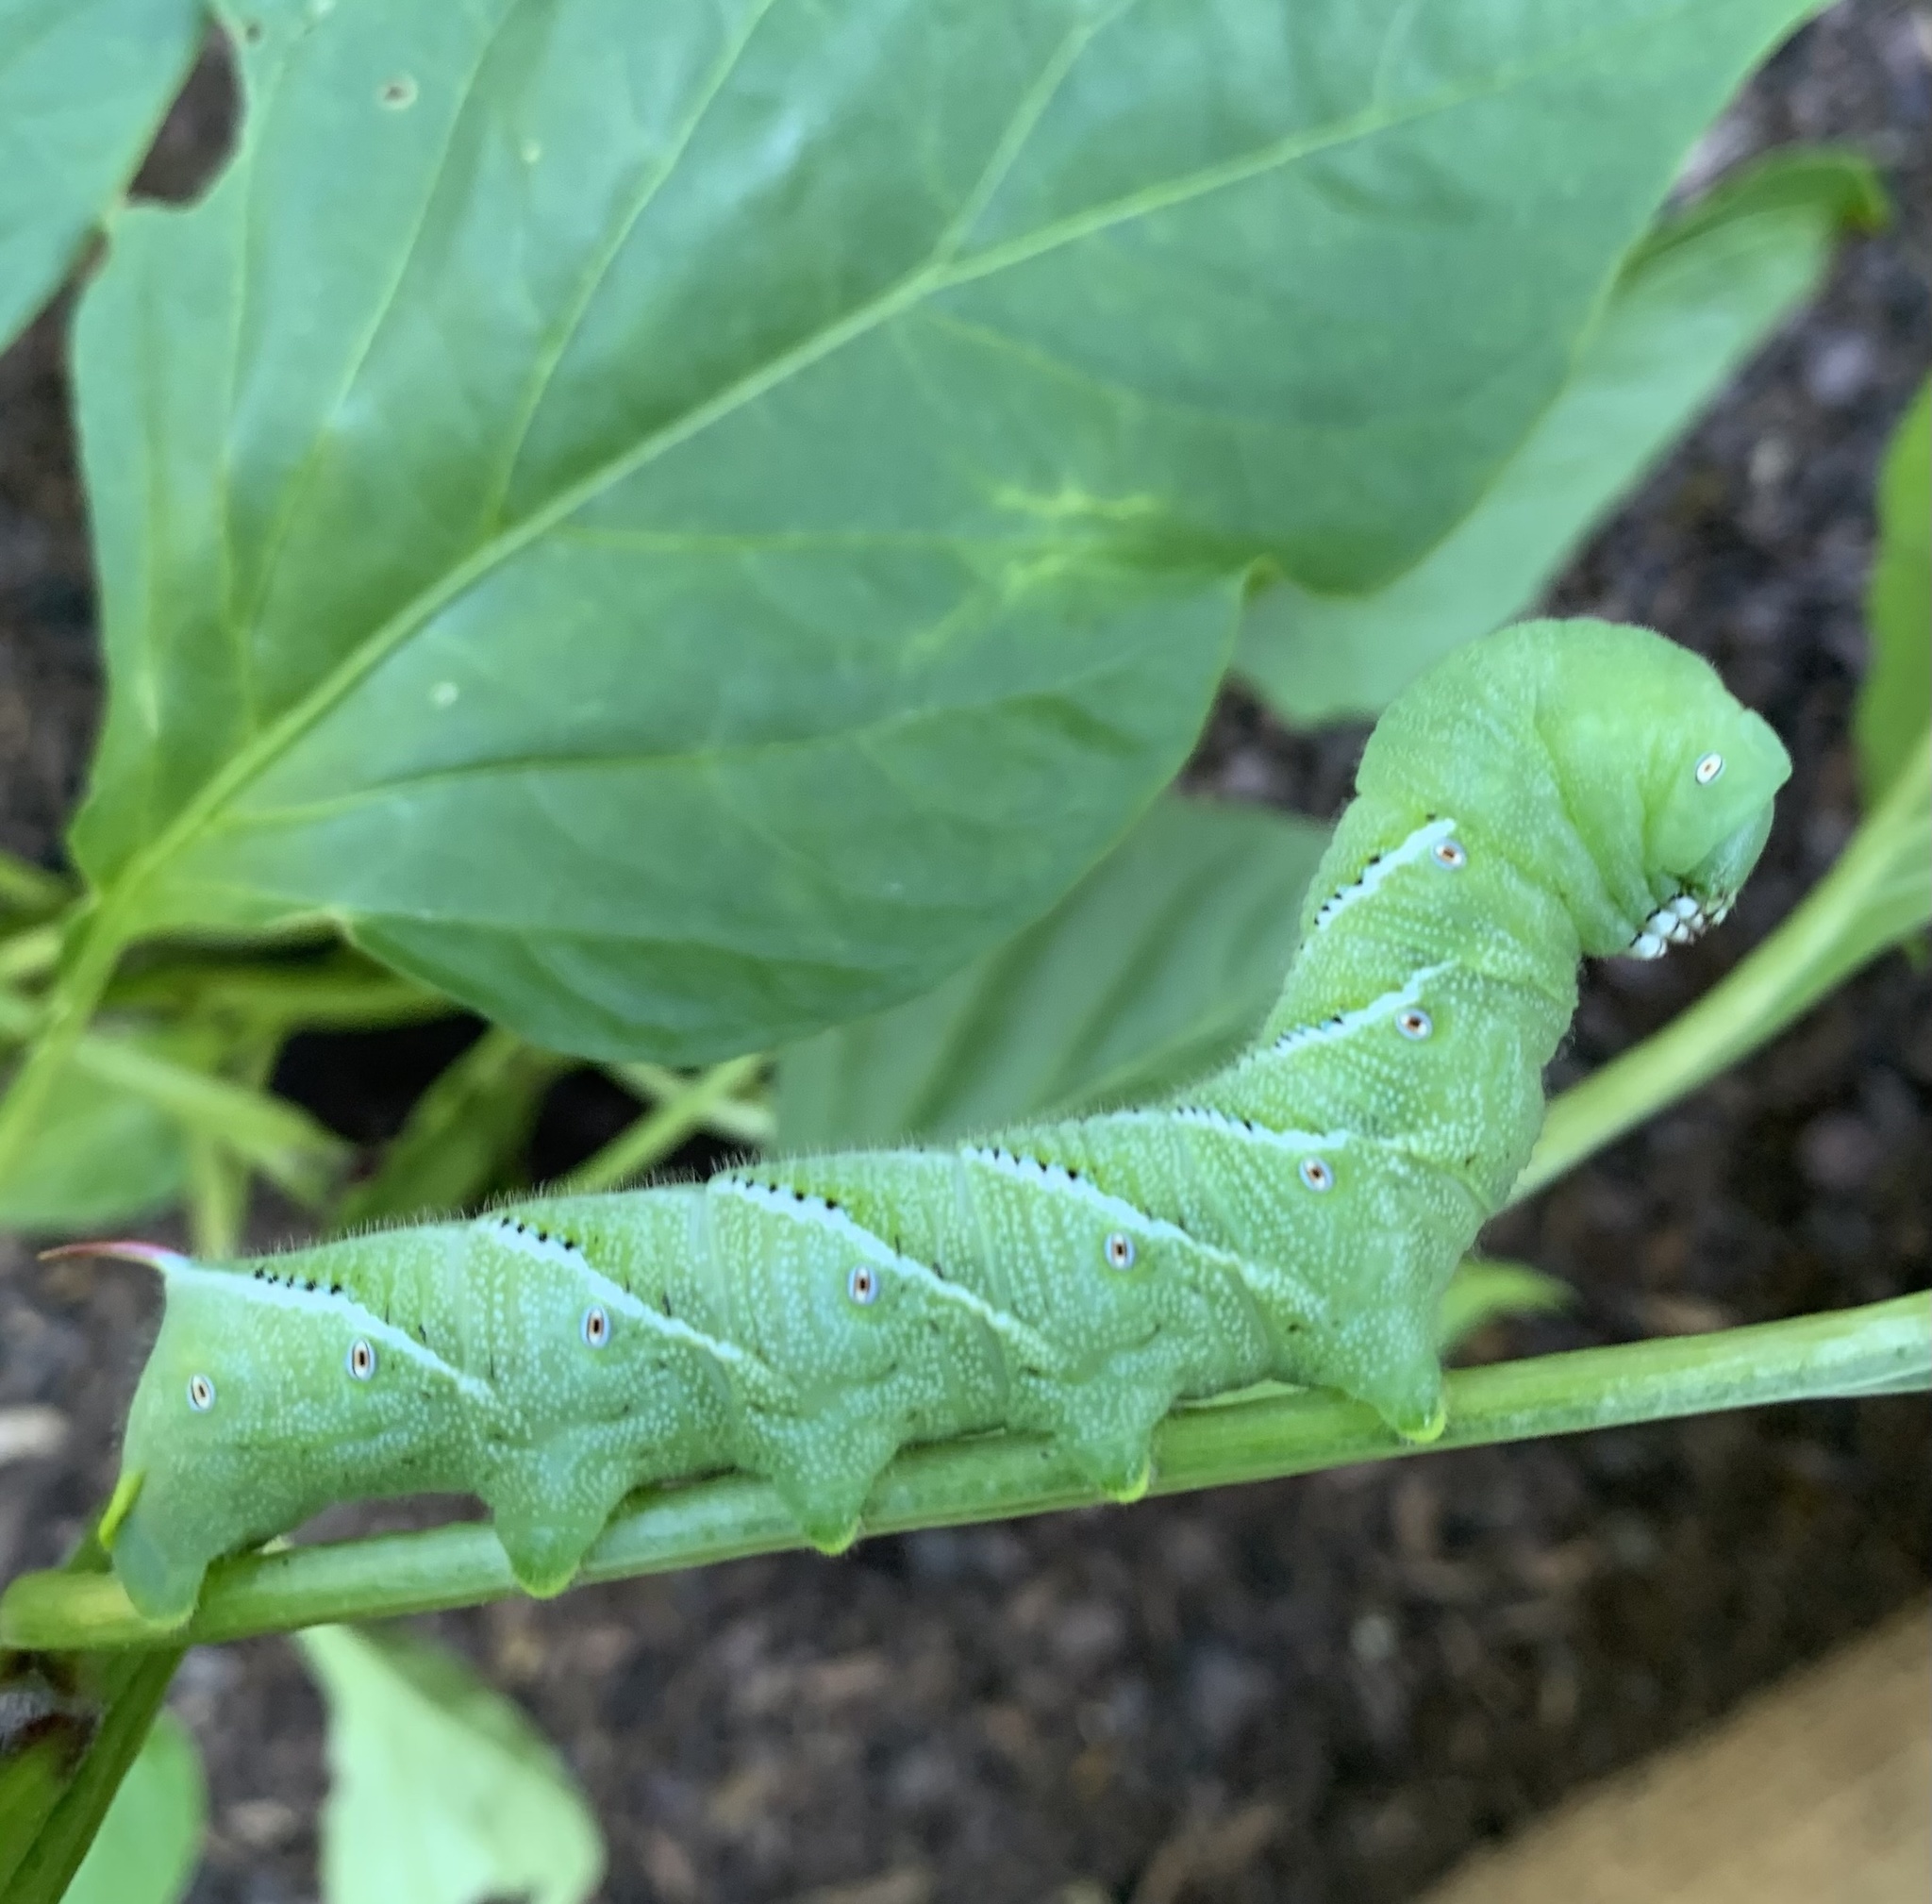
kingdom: Animalia
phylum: Arthropoda
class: Insecta
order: Lepidoptera
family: Sphingidae
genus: Manduca
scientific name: Manduca sexta
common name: Carolina sphinx
